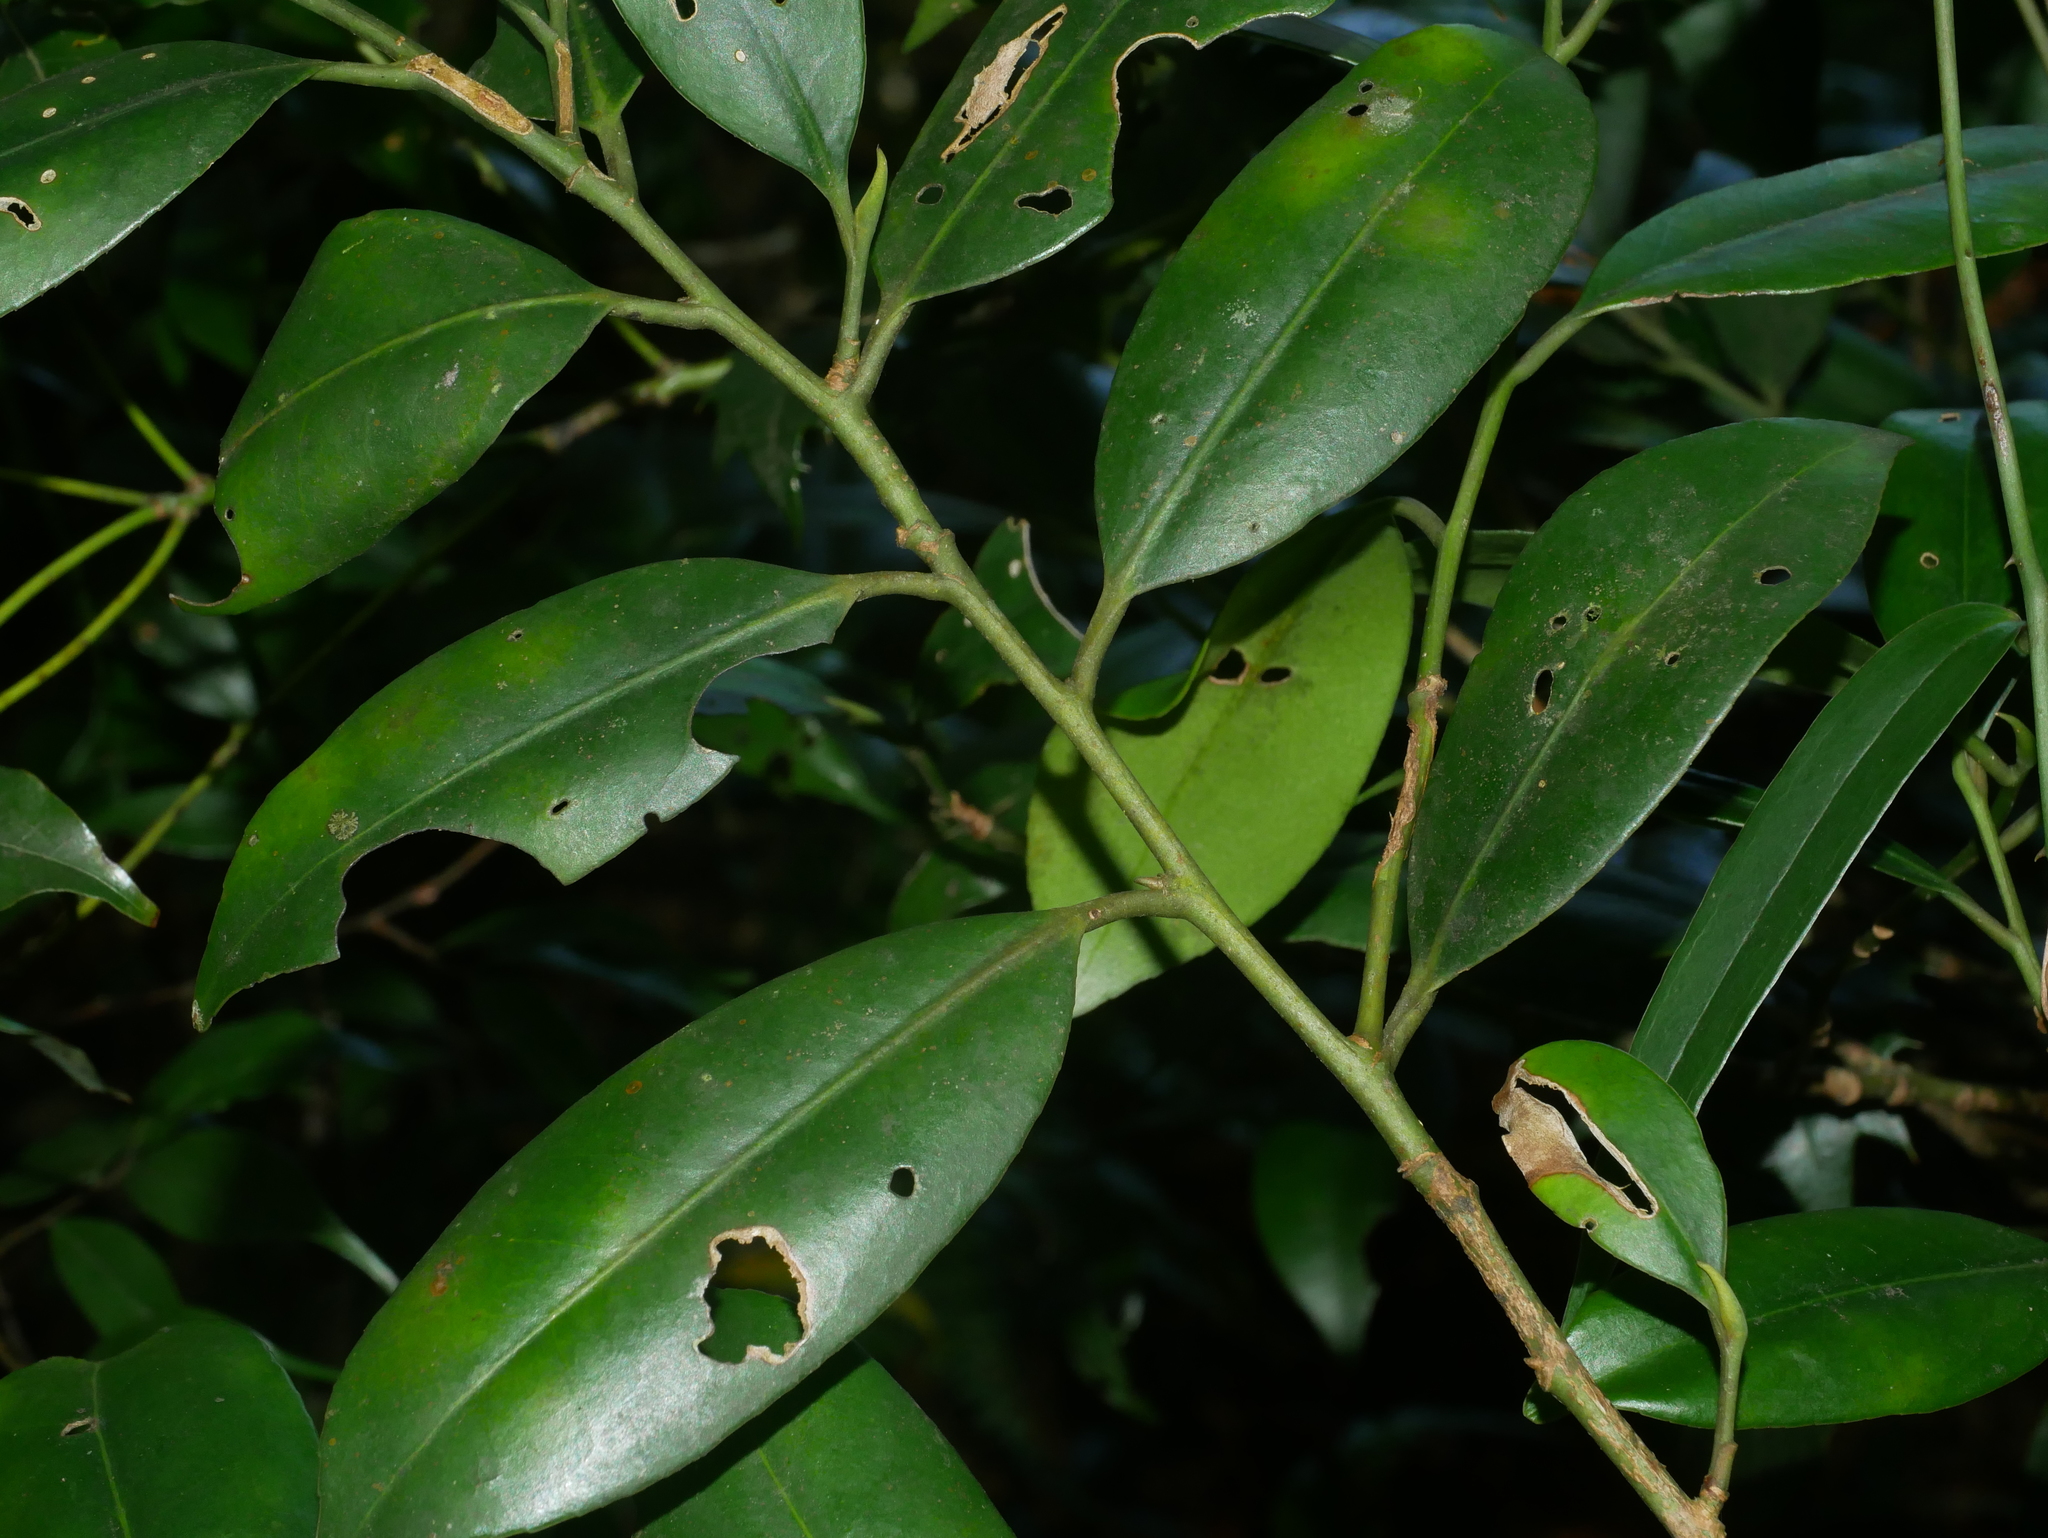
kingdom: Plantae
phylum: Tracheophyta
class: Magnoliopsida
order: Ericales
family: Pentaphylacaceae
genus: Cleyera
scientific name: Cleyera japonica
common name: Sakaki
